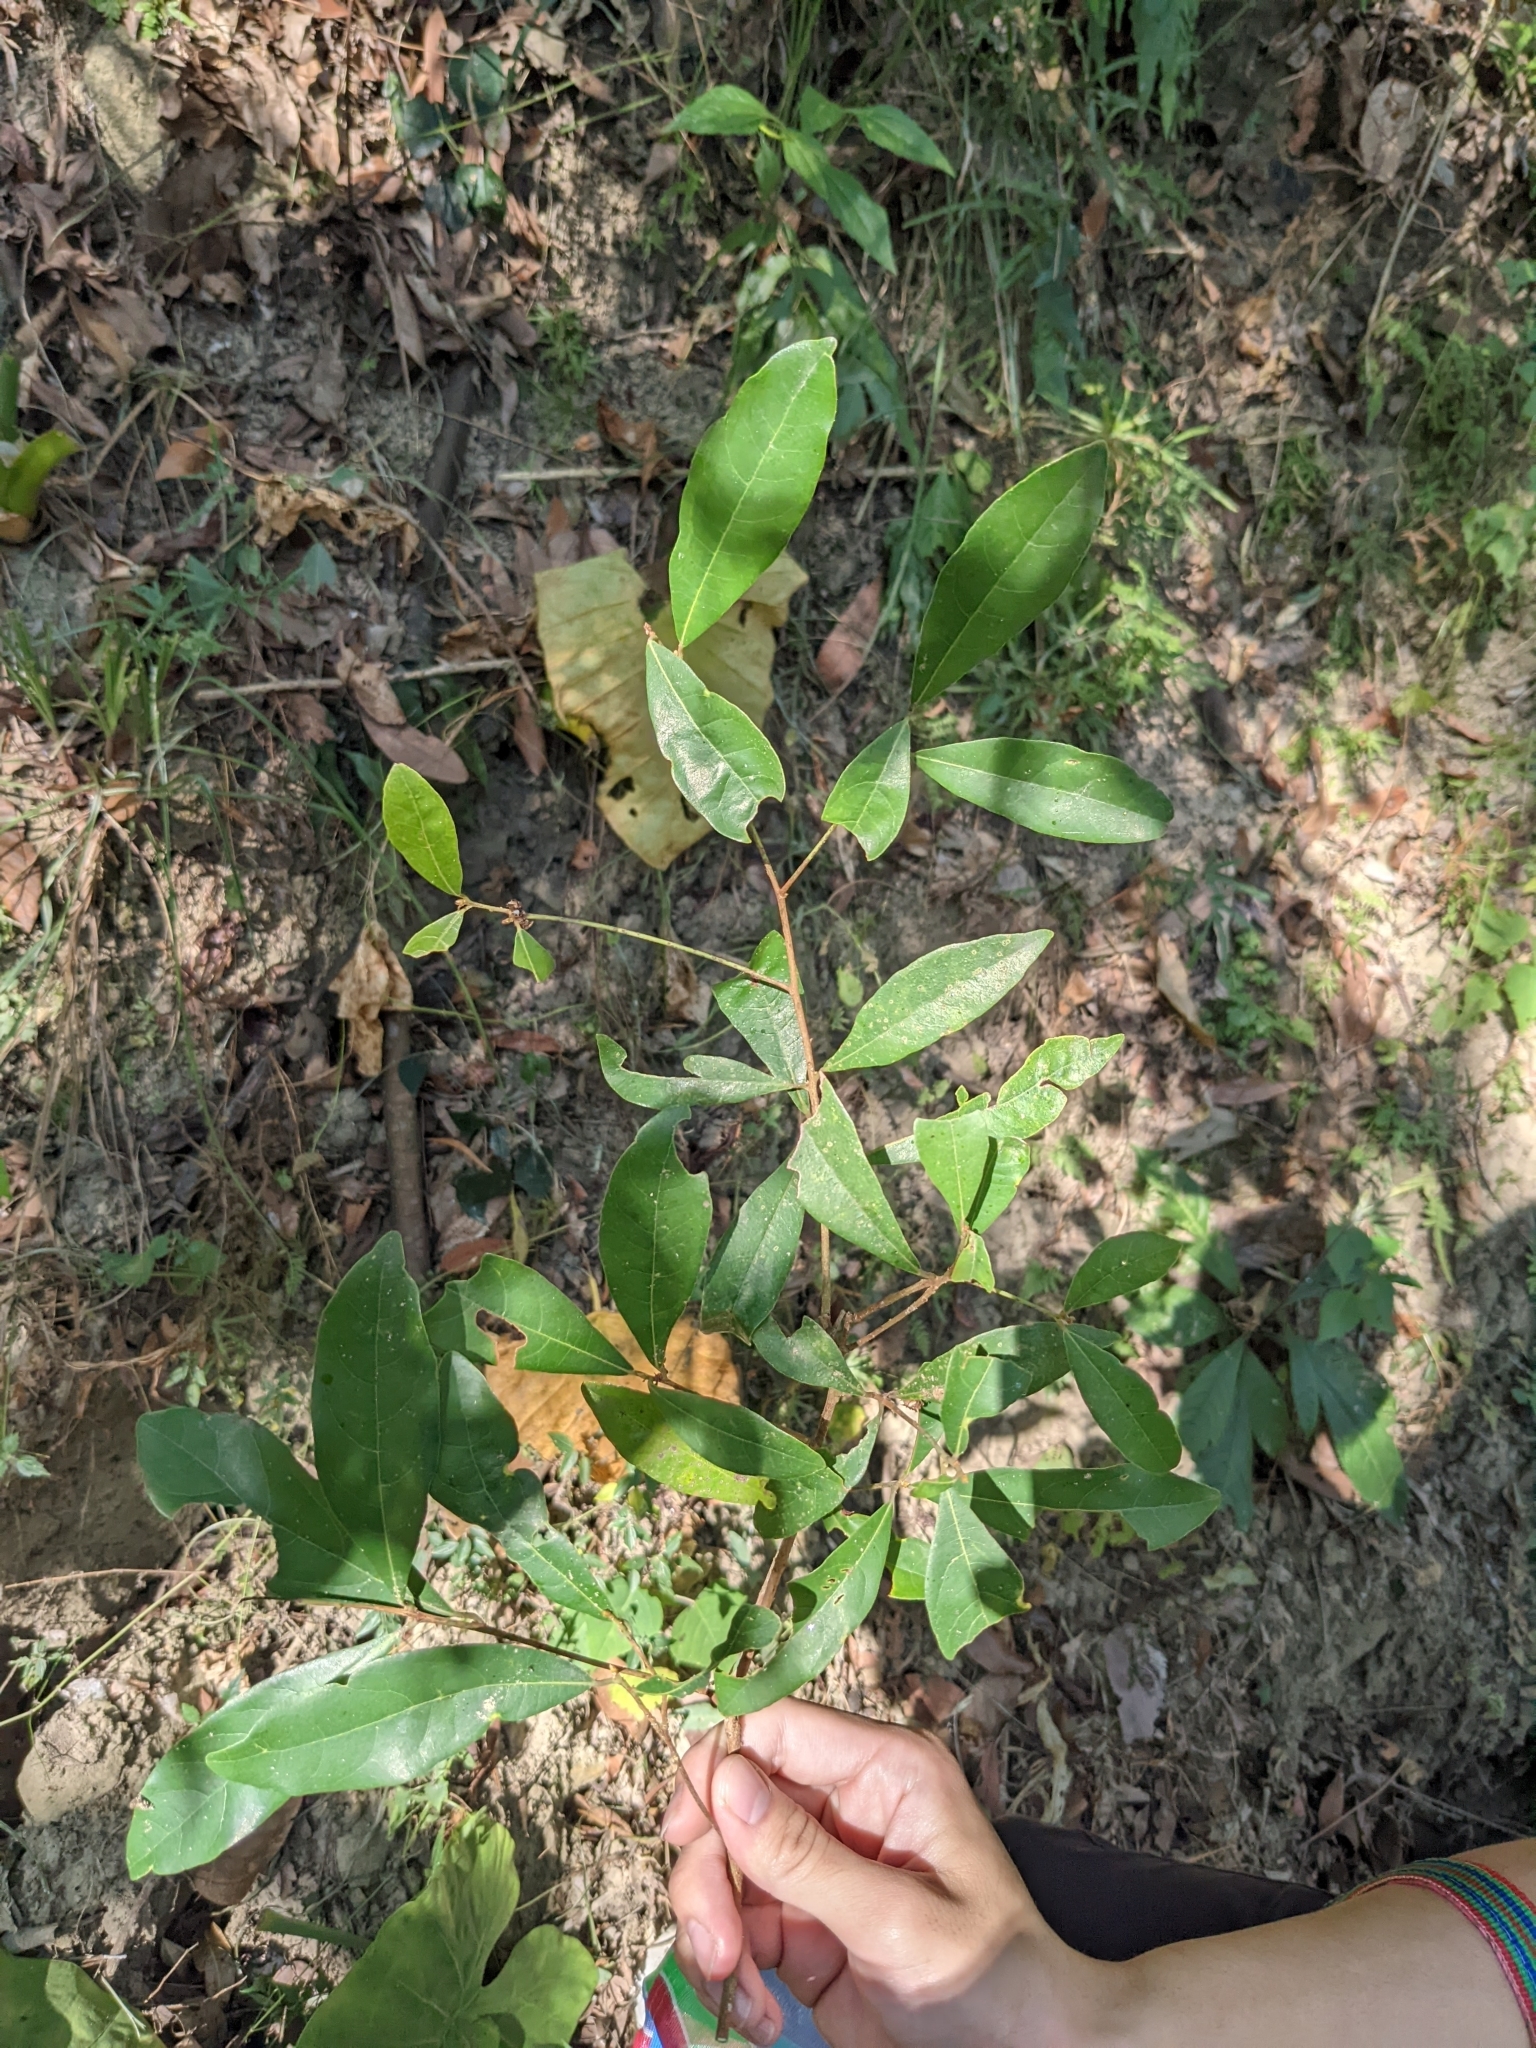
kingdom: Plantae
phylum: Tracheophyta
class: Magnoliopsida
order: Laurales
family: Lauraceae
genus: Litsea
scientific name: Litsea hypophaea
